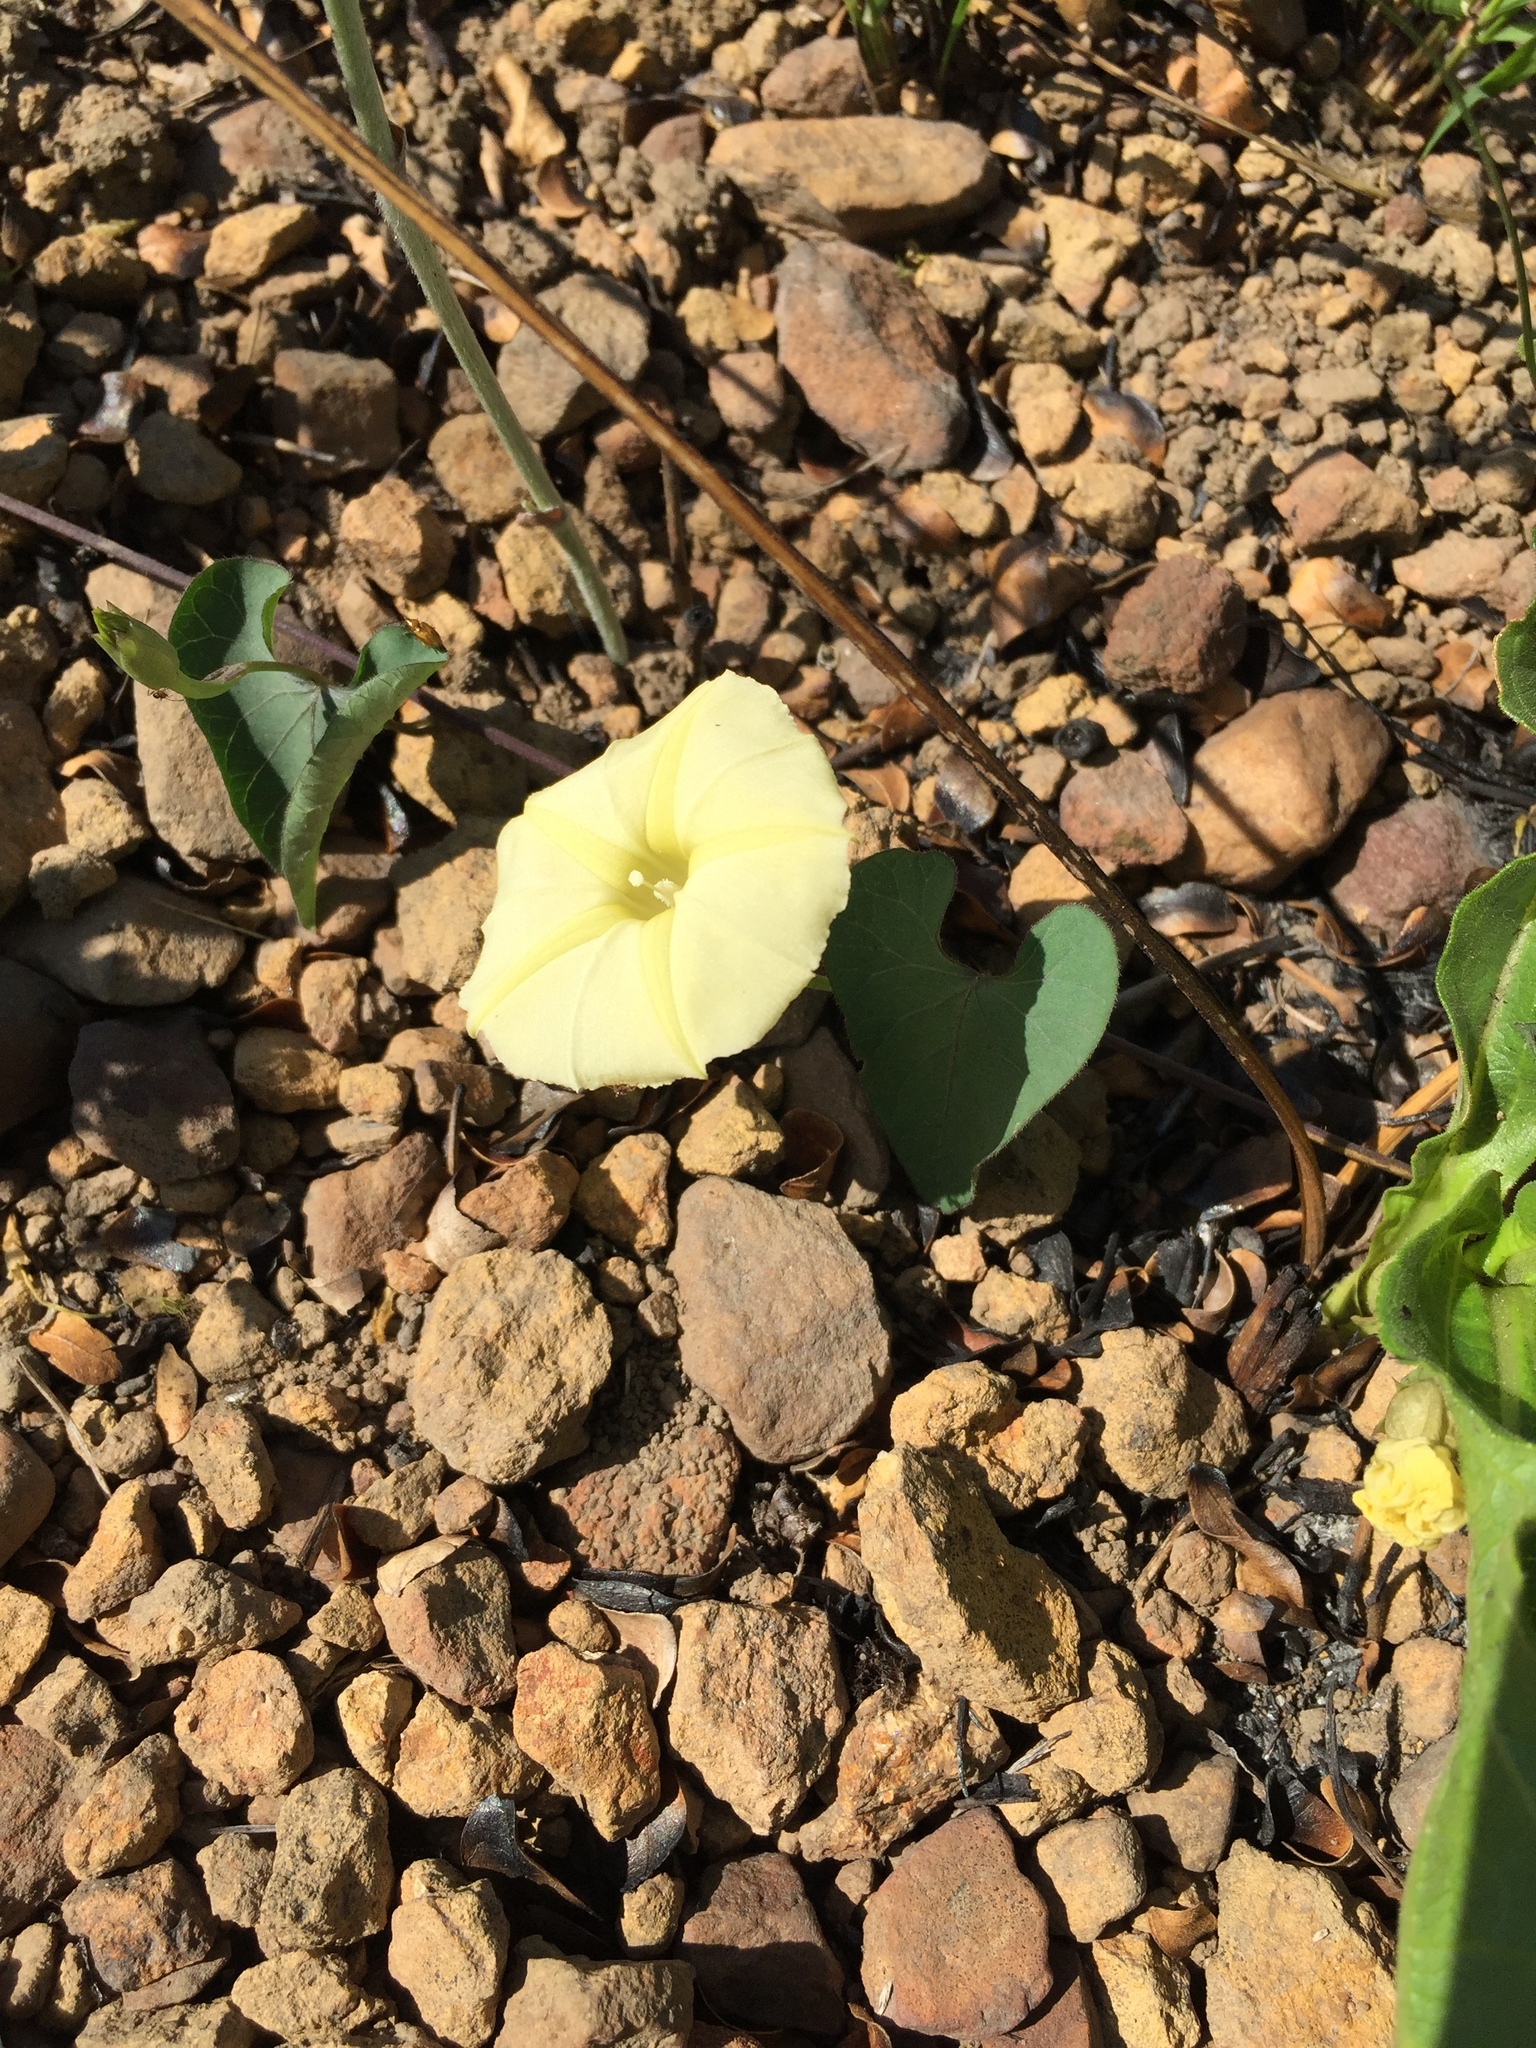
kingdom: Plantae
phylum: Tracheophyta
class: Magnoliopsida
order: Solanales
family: Convolvulaceae
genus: Ipomoea
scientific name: Ipomoea obscura
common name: Obscure morning-glory
